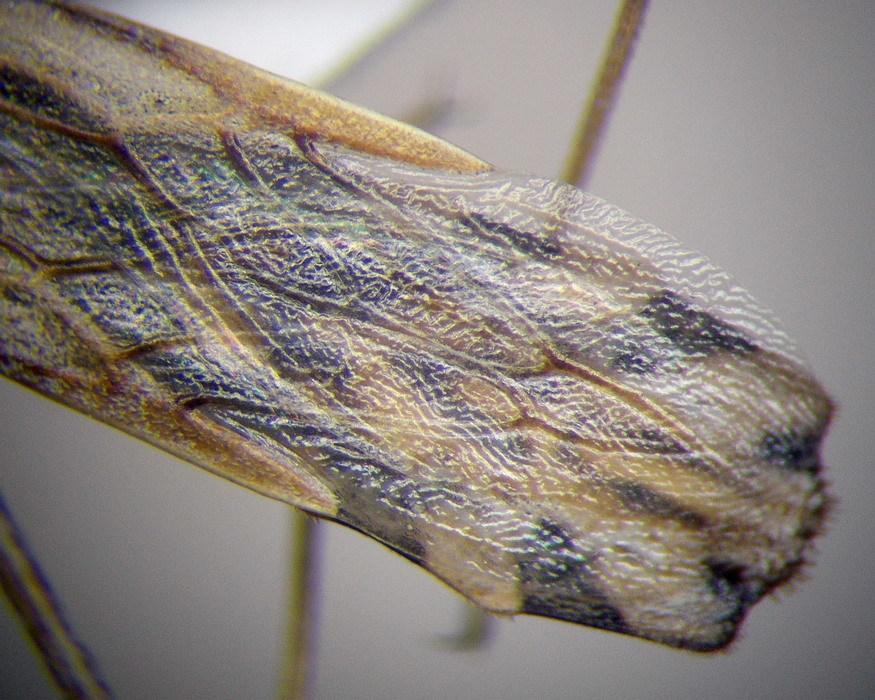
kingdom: Animalia
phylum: Arthropoda
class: Insecta
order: Hemiptera
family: Reduviidae
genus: Vachiria
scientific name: Vachiria deserta
